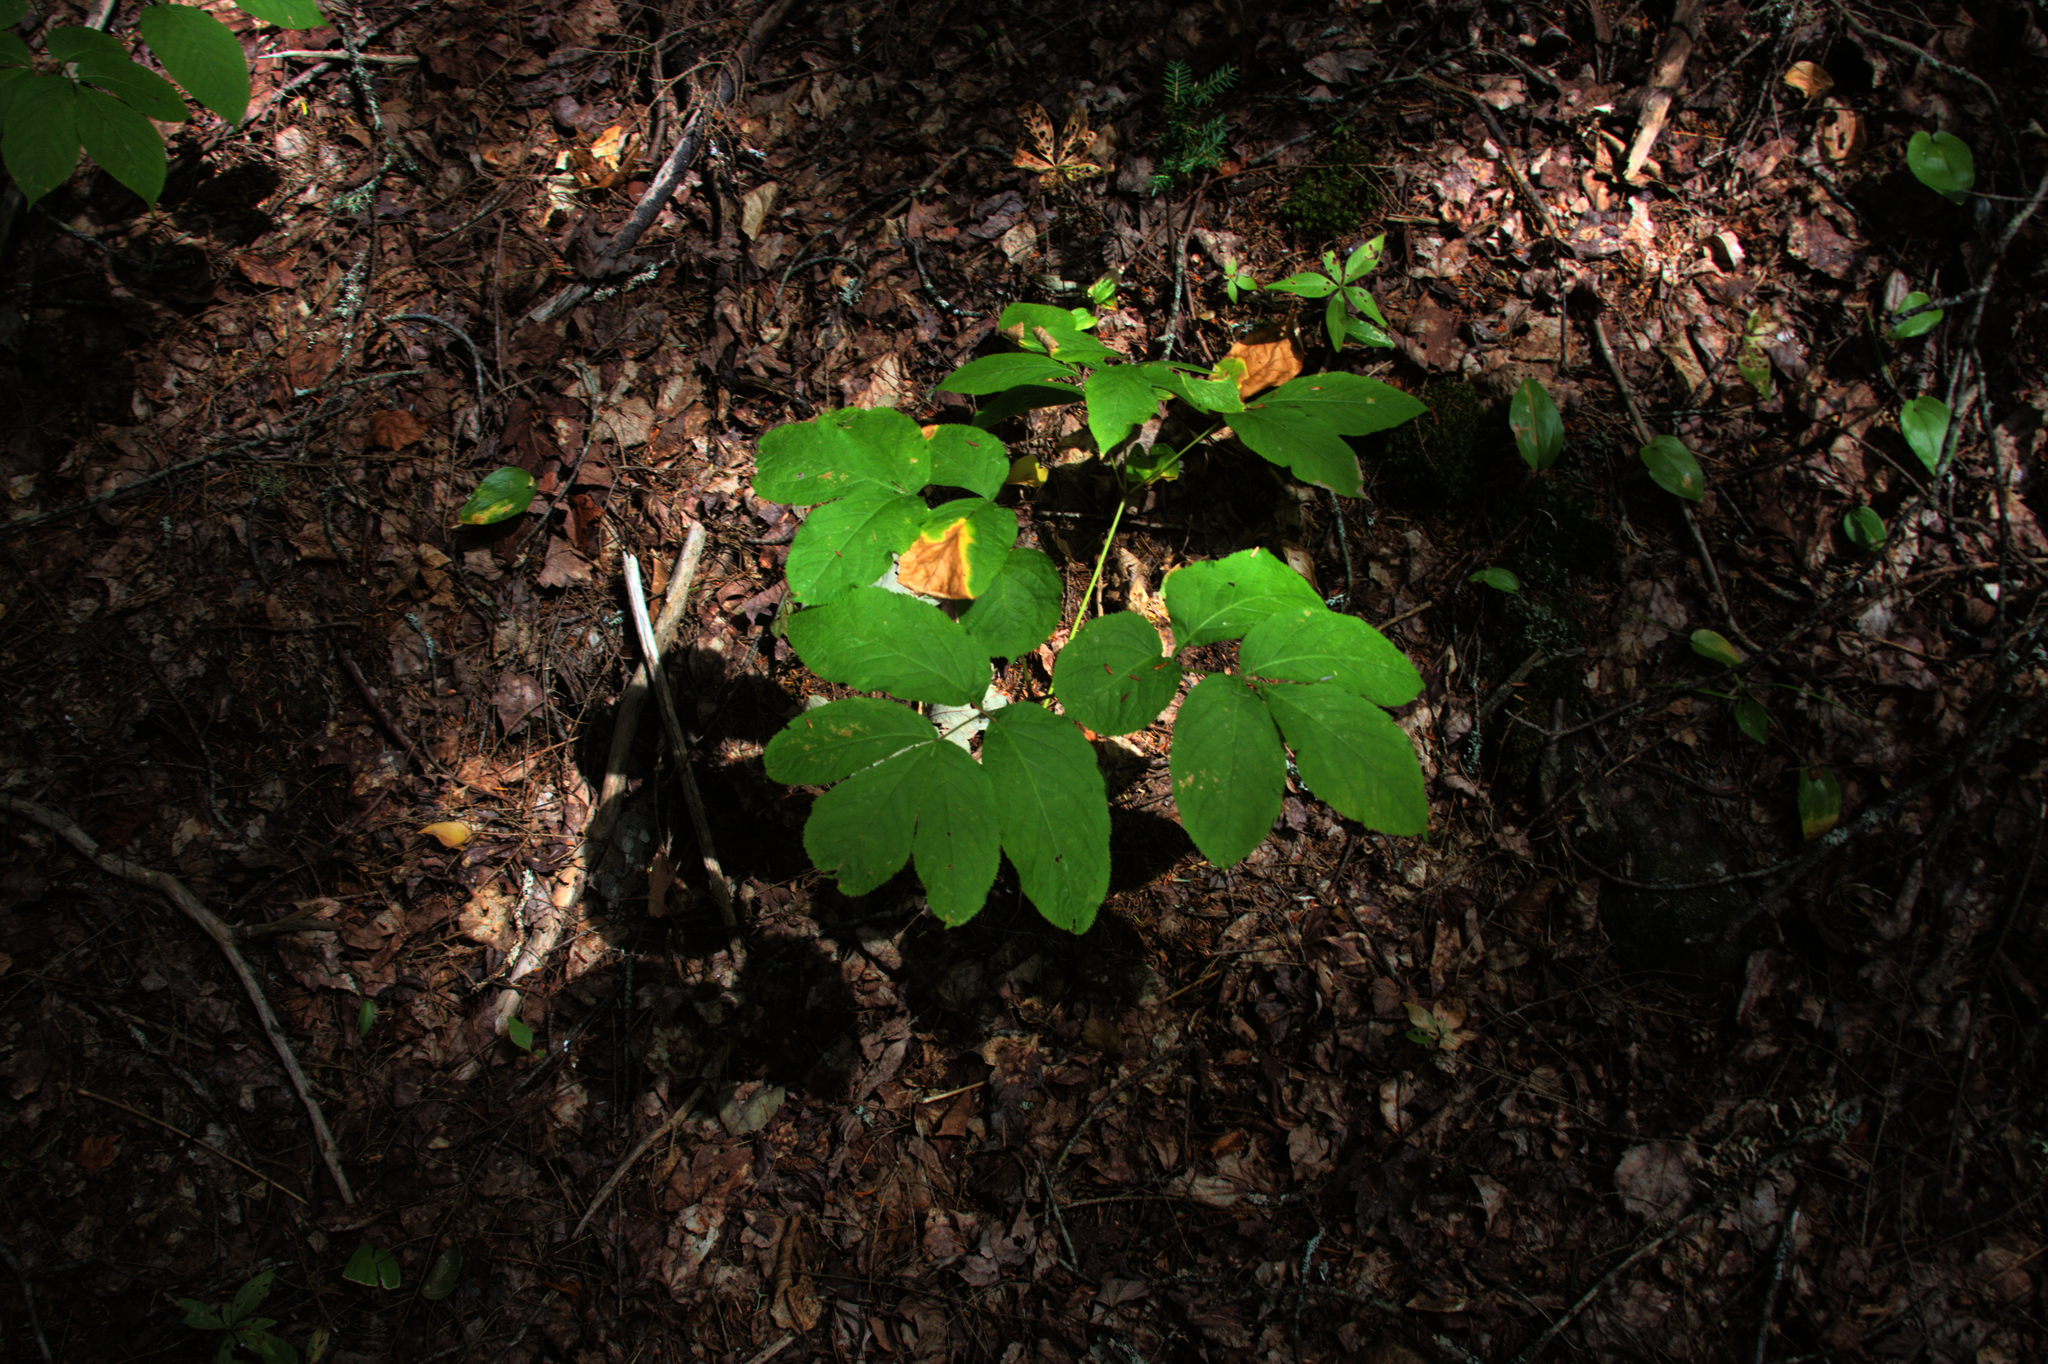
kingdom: Plantae
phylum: Tracheophyta
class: Magnoliopsida
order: Ericales
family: Primulaceae
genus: Lysimachia
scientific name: Lysimachia borealis
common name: American starflower
